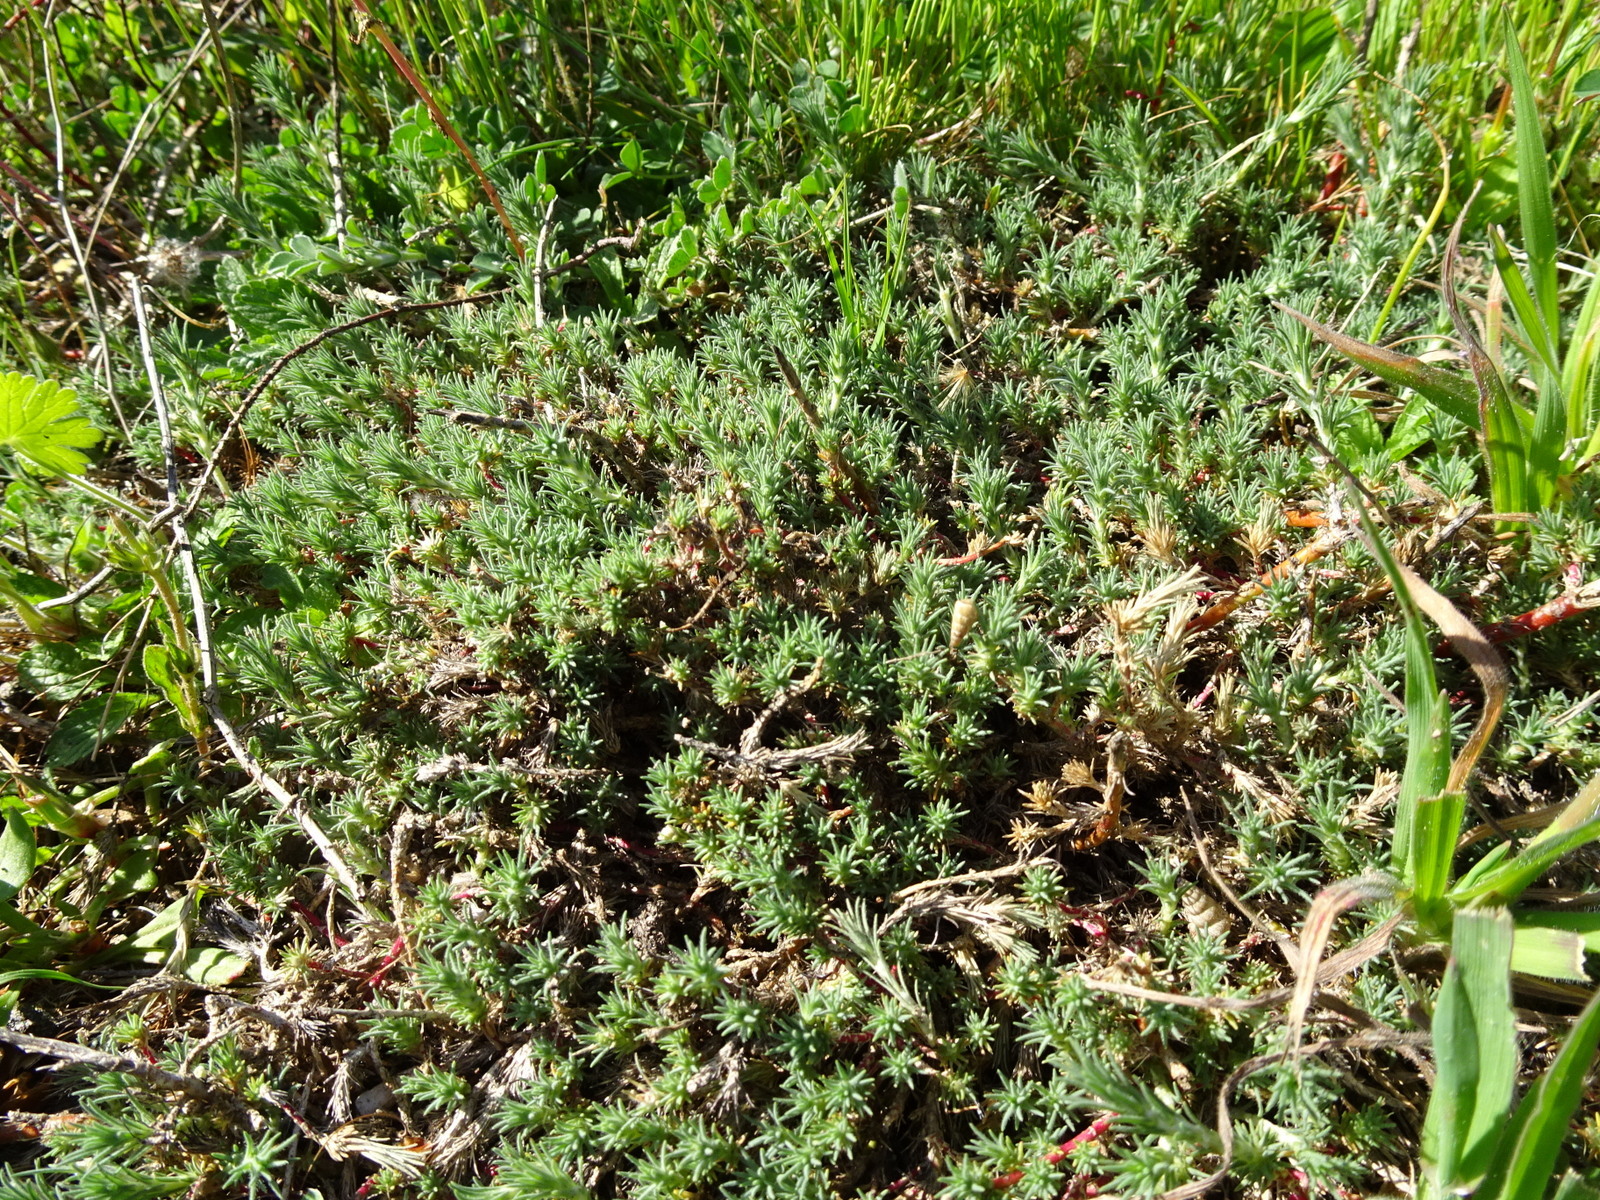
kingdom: Plantae
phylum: Tracheophyta
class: Magnoliopsida
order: Caryophyllales
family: Amaranthaceae
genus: Camphorosma
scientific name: Camphorosma monspeliaca
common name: Camphorfume
